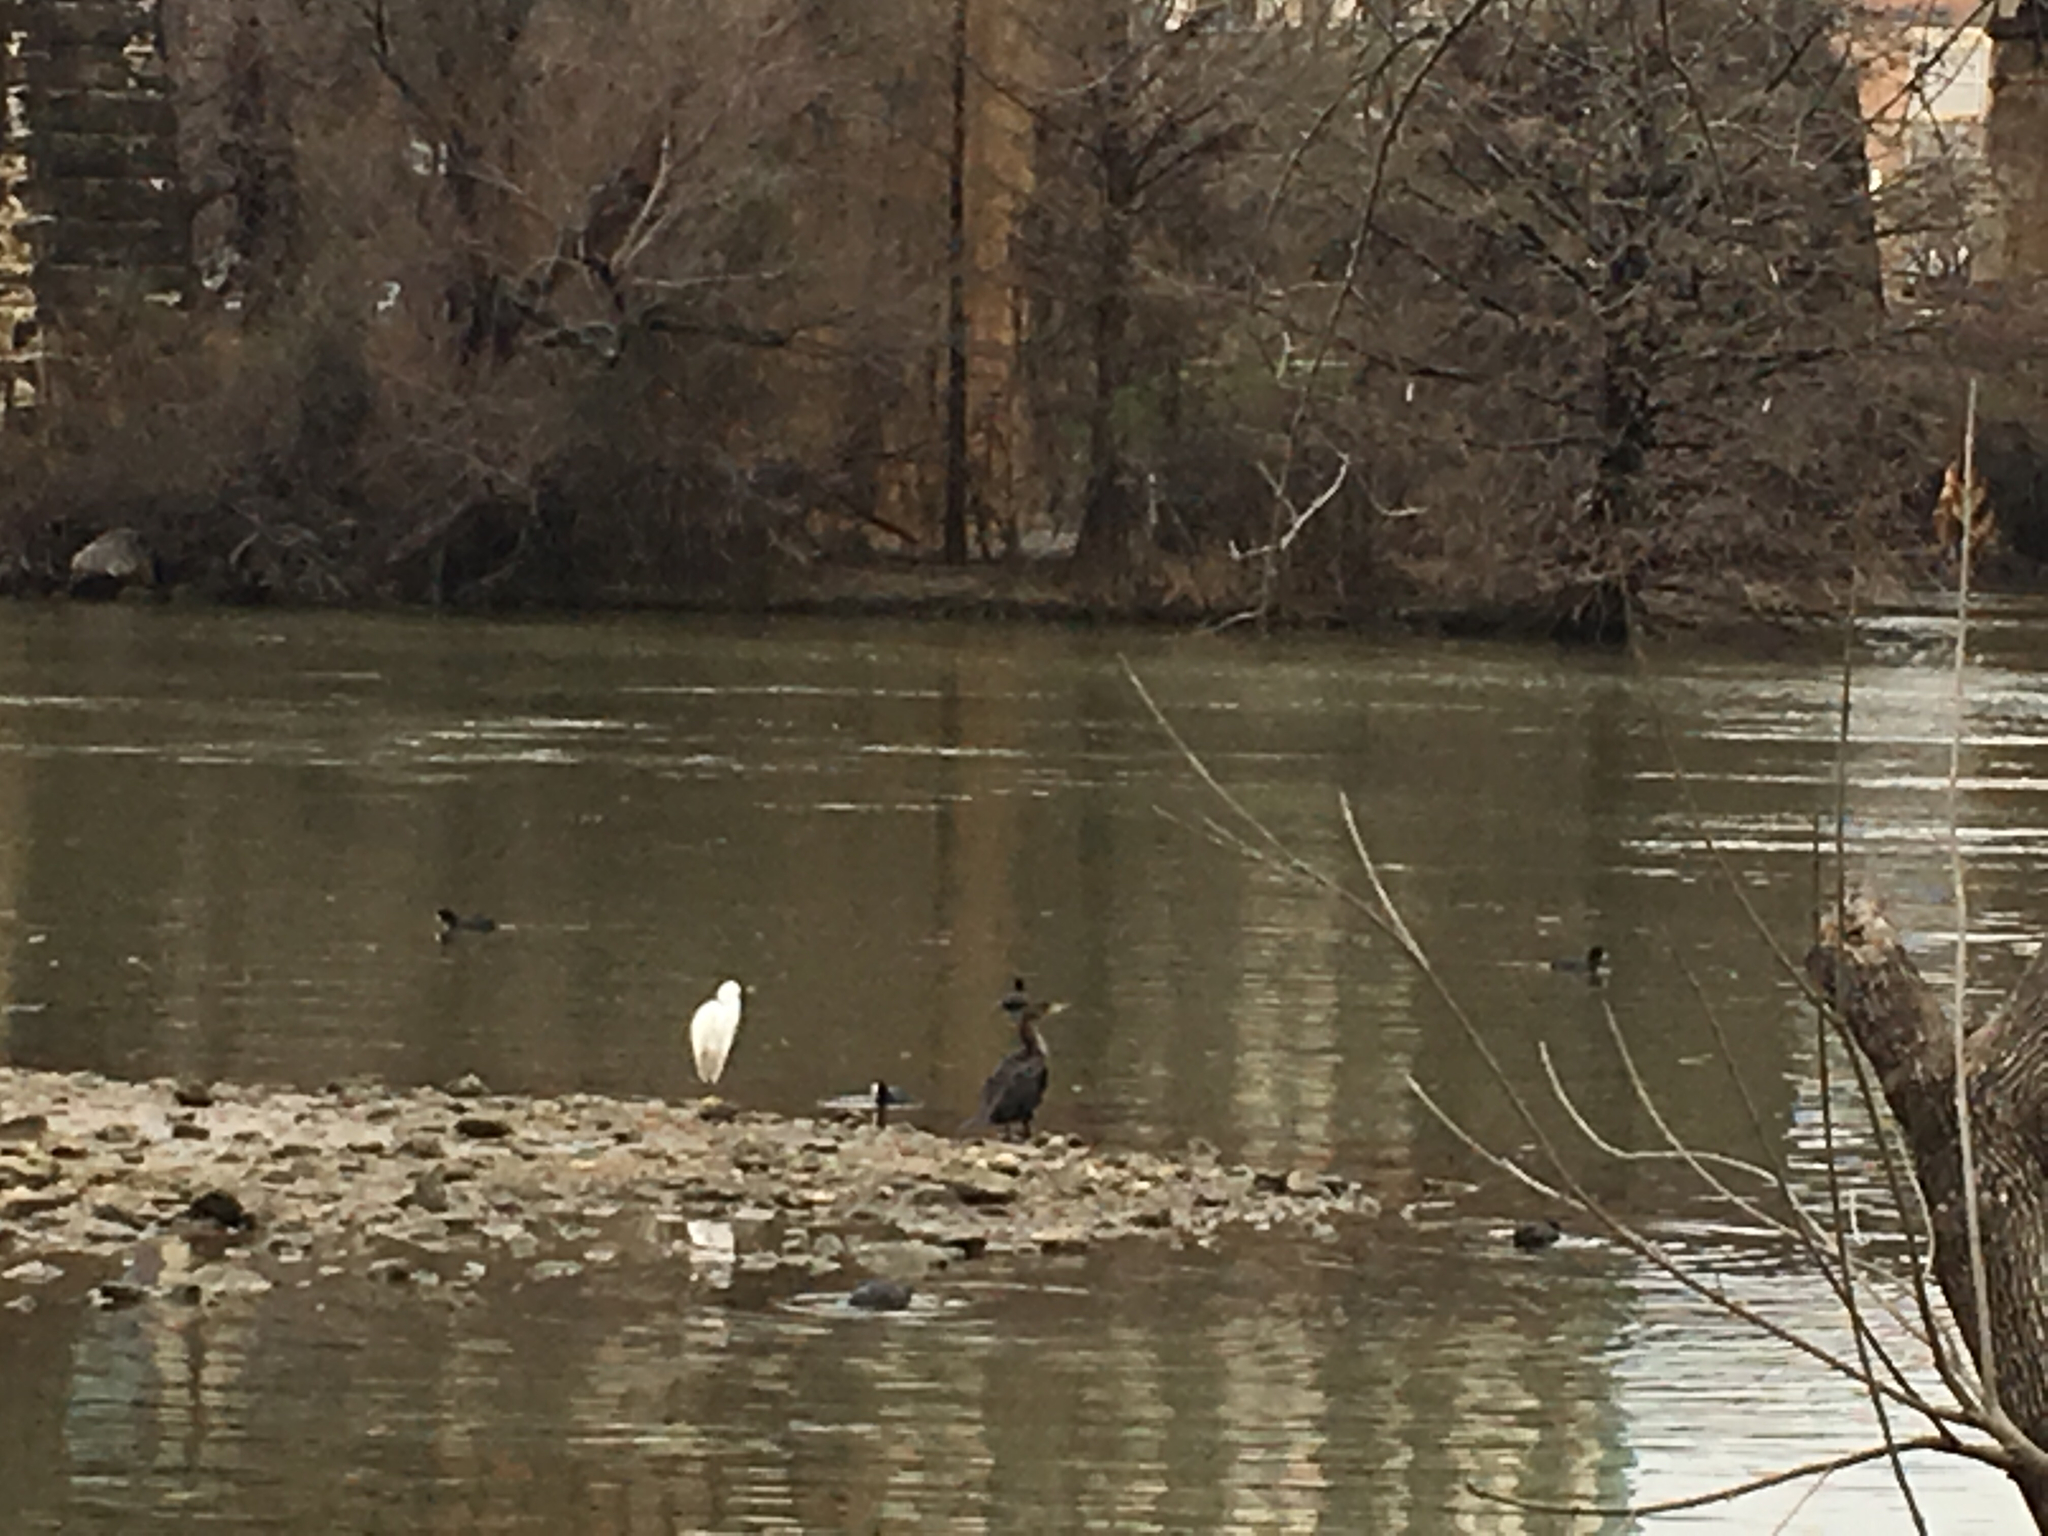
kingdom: Animalia
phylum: Chordata
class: Aves
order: Suliformes
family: Phalacrocoracidae
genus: Phalacrocorax
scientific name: Phalacrocorax auritus
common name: Double-crested cormorant
